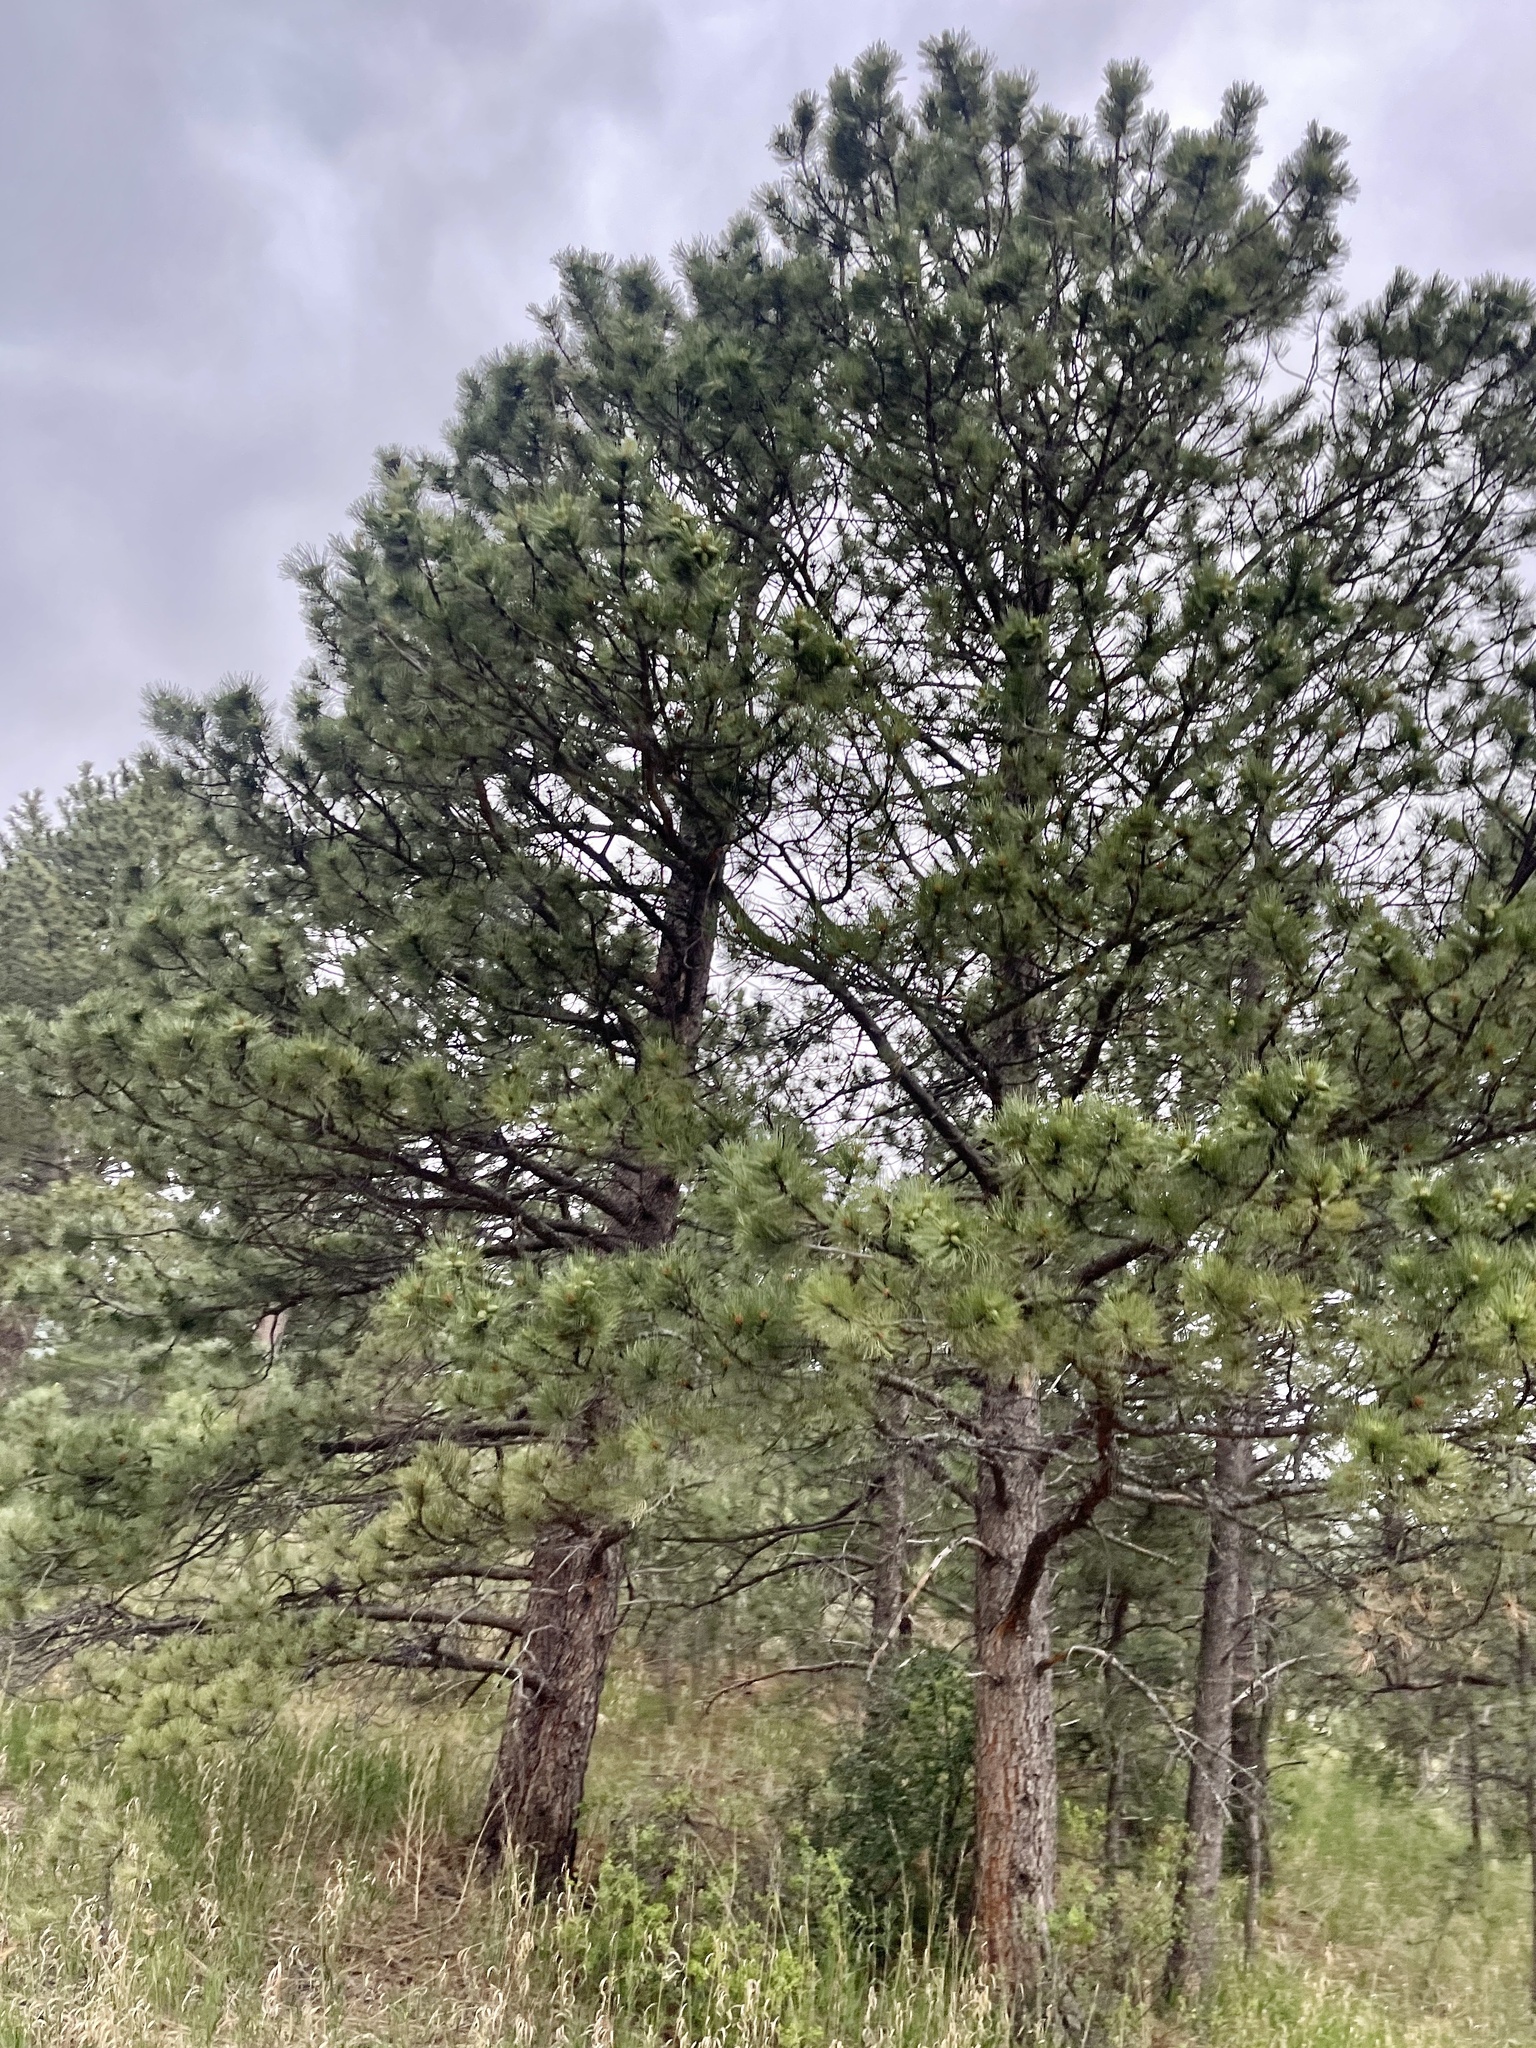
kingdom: Plantae
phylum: Tracheophyta
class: Pinopsida
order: Pinales
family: Pinaceae
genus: Pinus
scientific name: Pinus ponderosa
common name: Western yellow-pine
